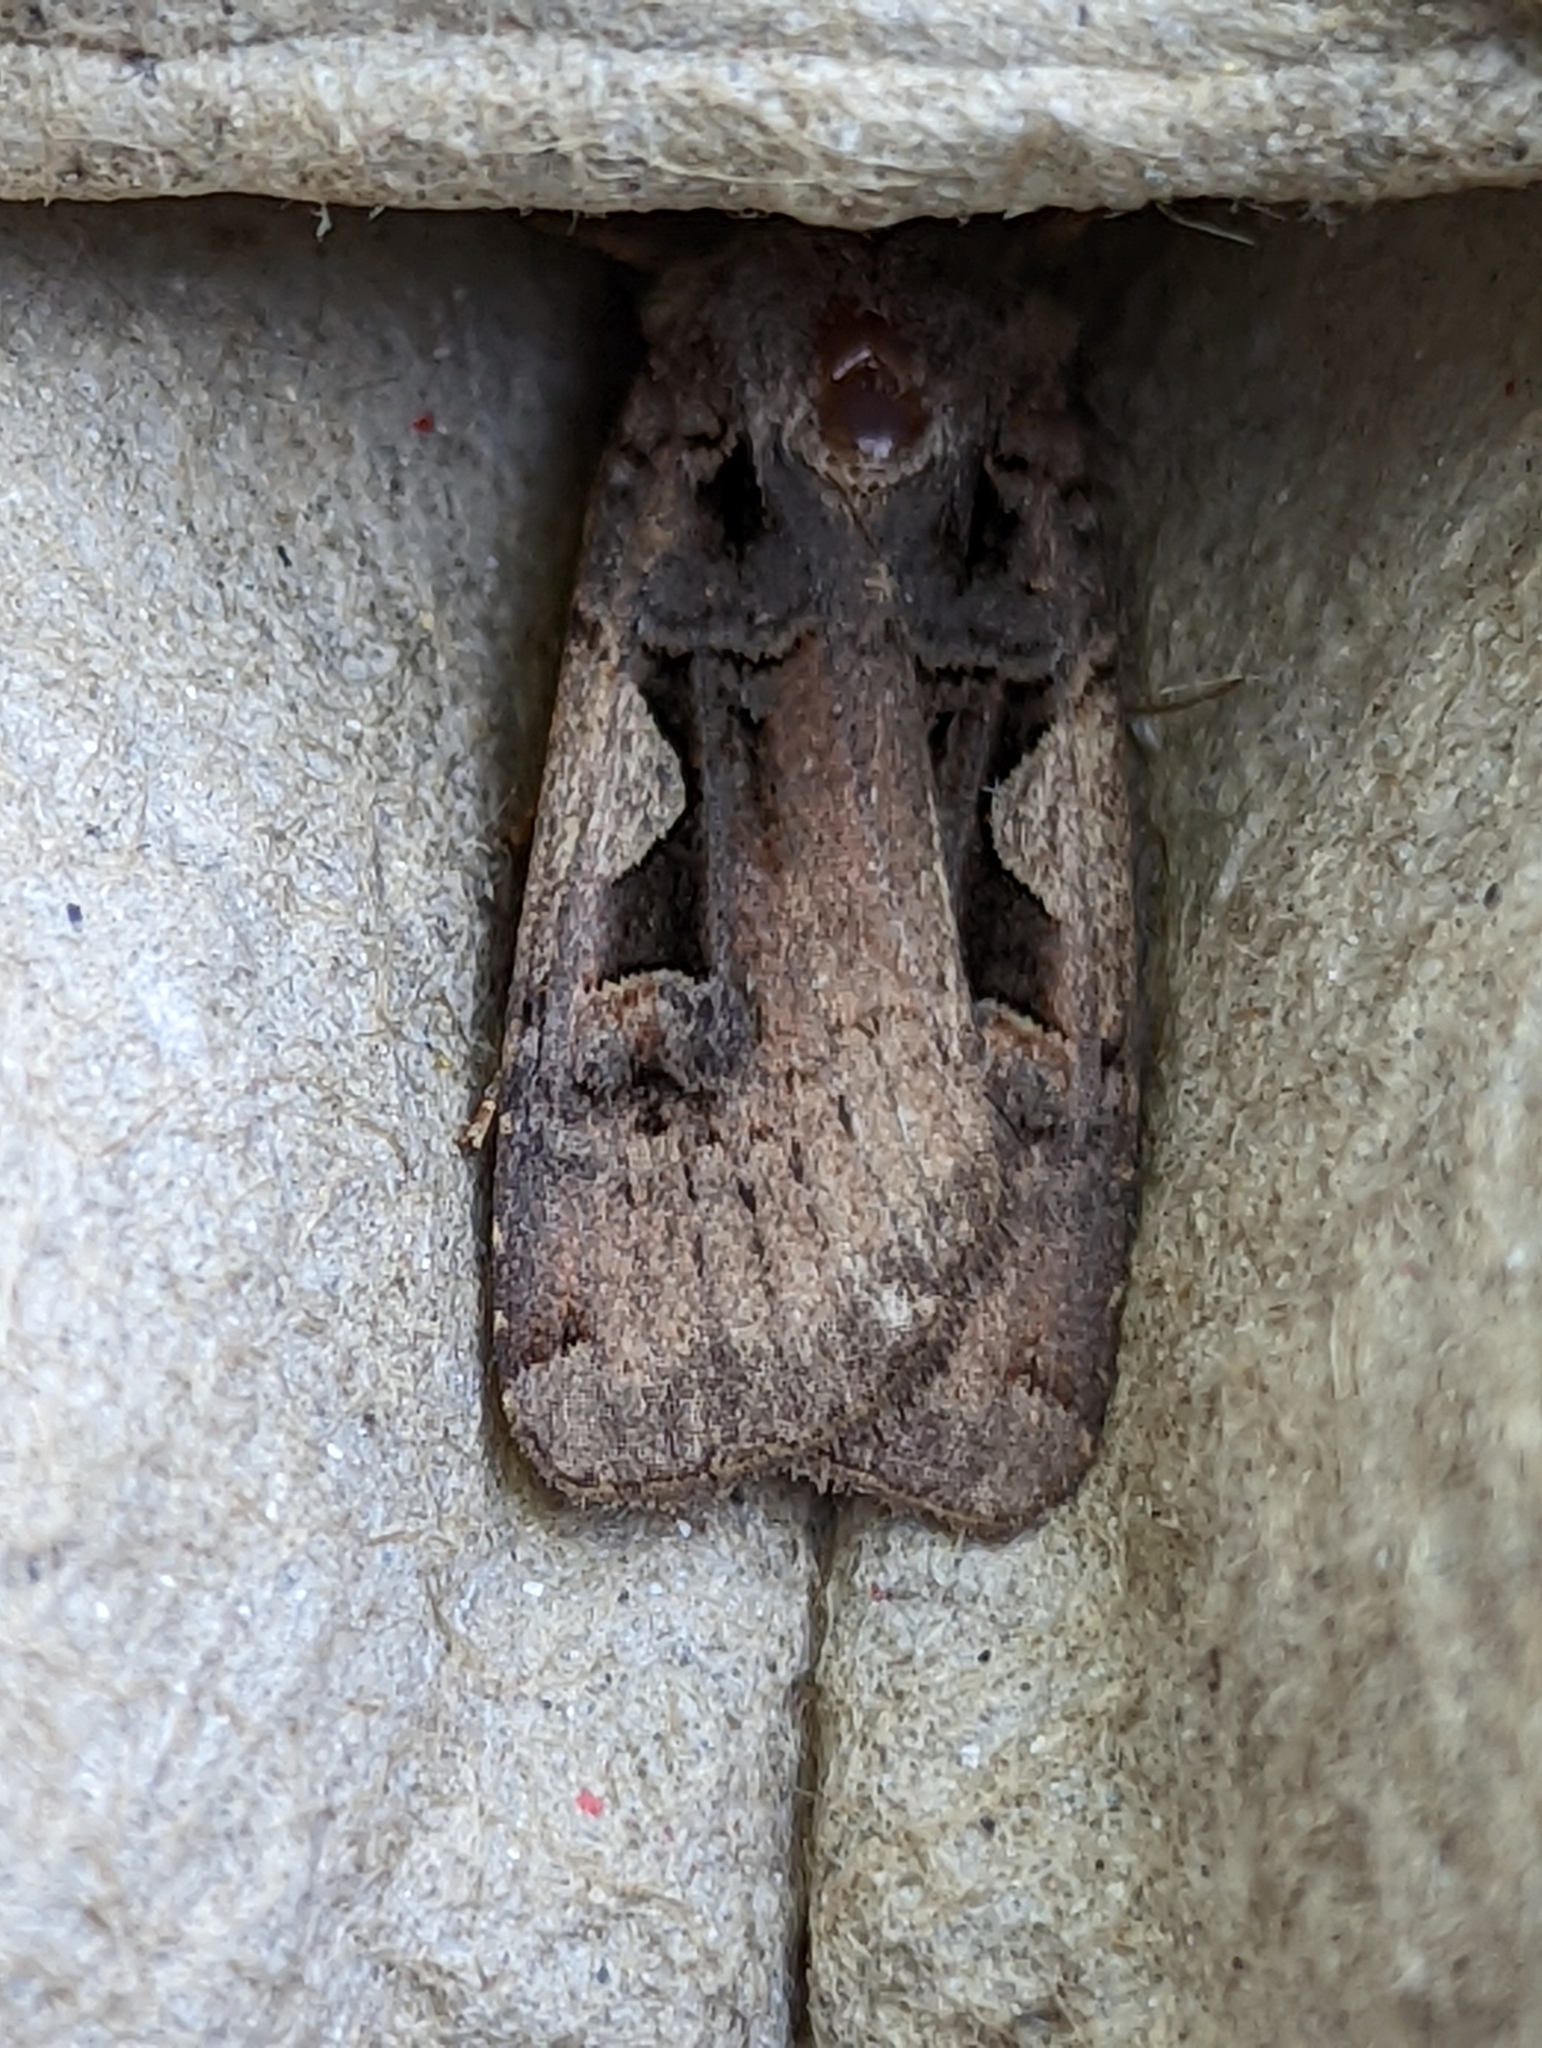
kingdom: Animalia
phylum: Arthropoda
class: Insecta
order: Lepidoptera
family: Noctuidae
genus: Xestia
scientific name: Xestia c-nigrum
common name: Setaceous hebrew character
